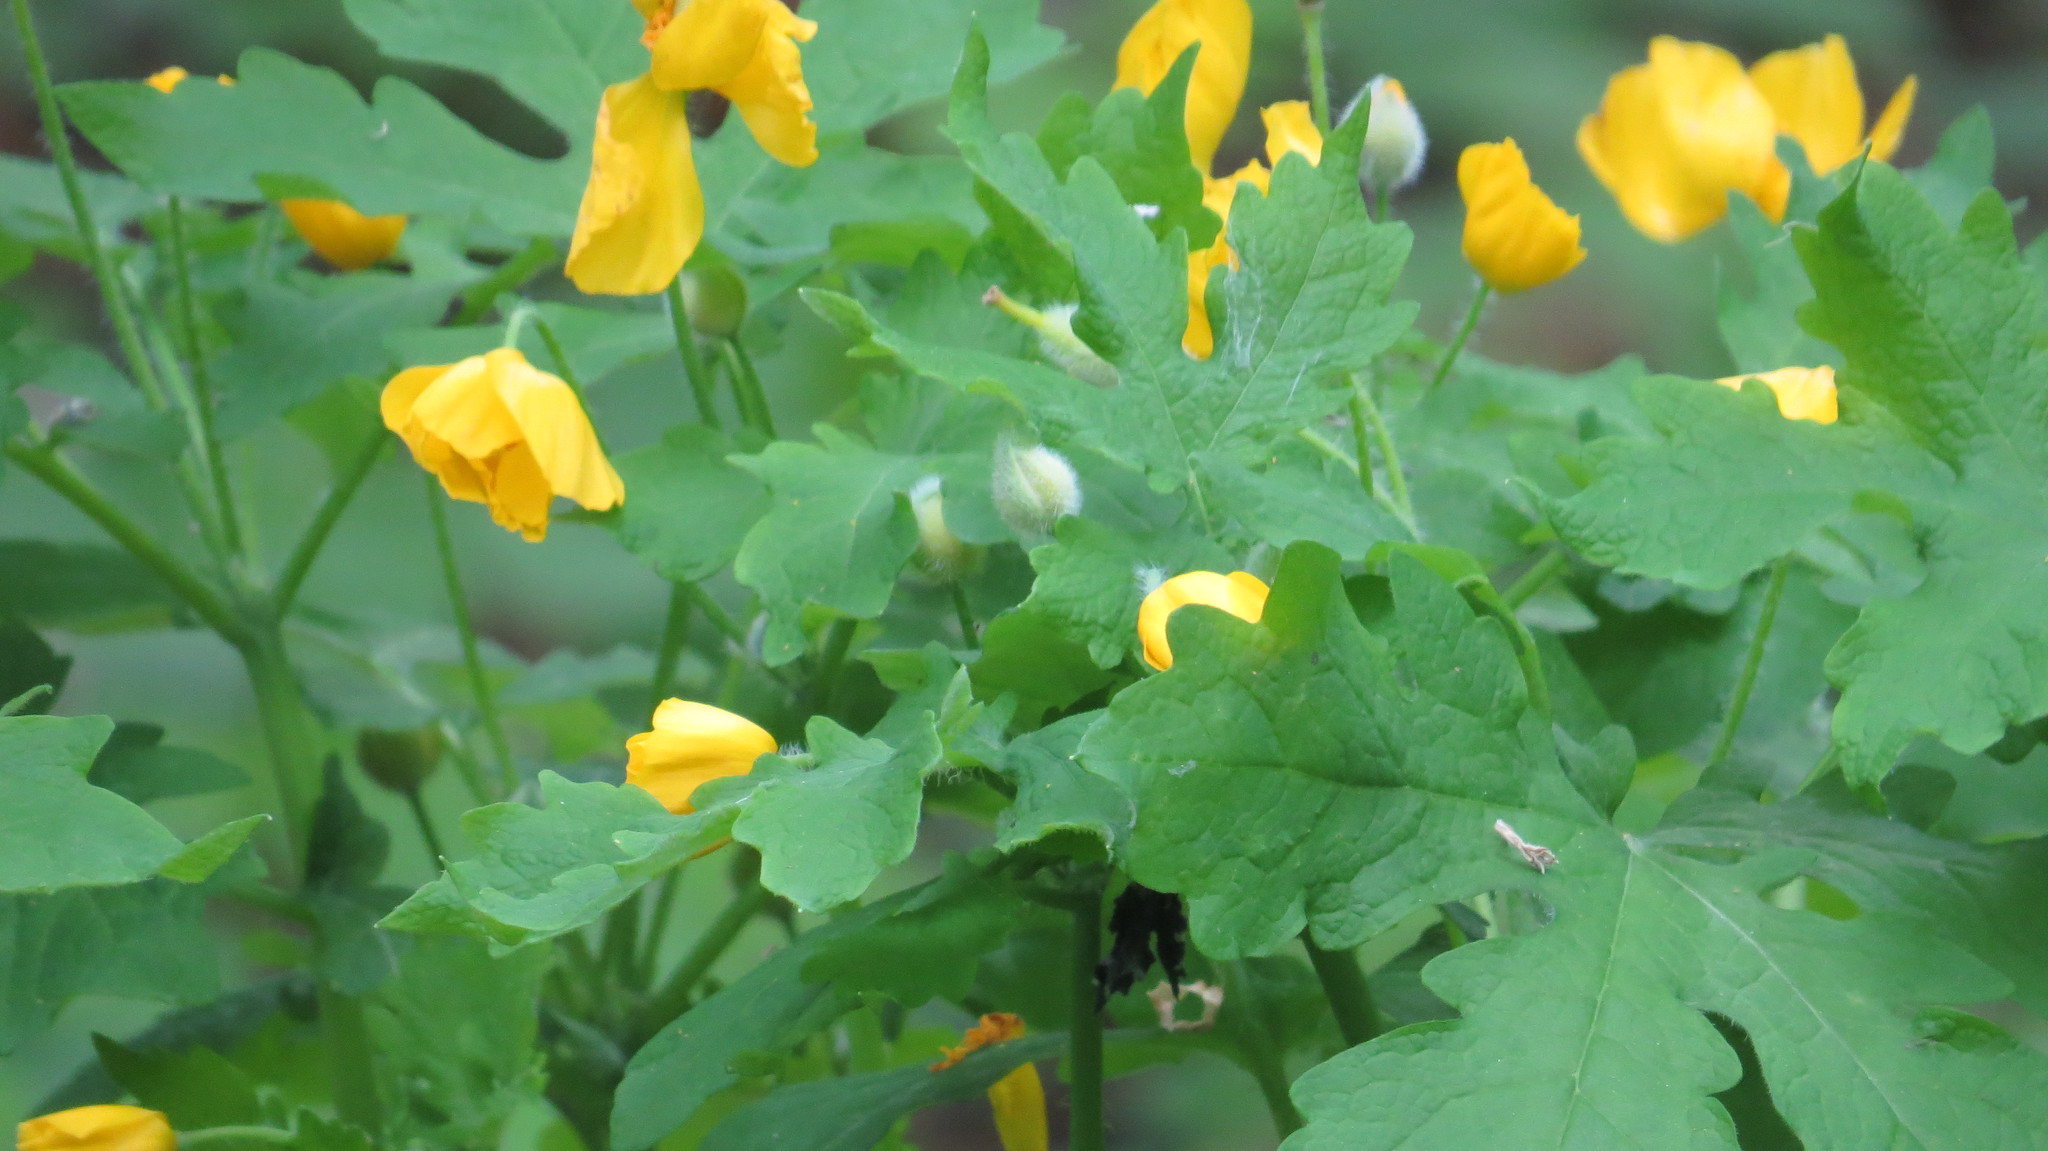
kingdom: Plantae
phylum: Tracheophyta
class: Magnoliopsida
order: Ranunculales
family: Papaveraceae
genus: Stylophorum
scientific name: Stylophorum diphyllum
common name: Celandine poppy
